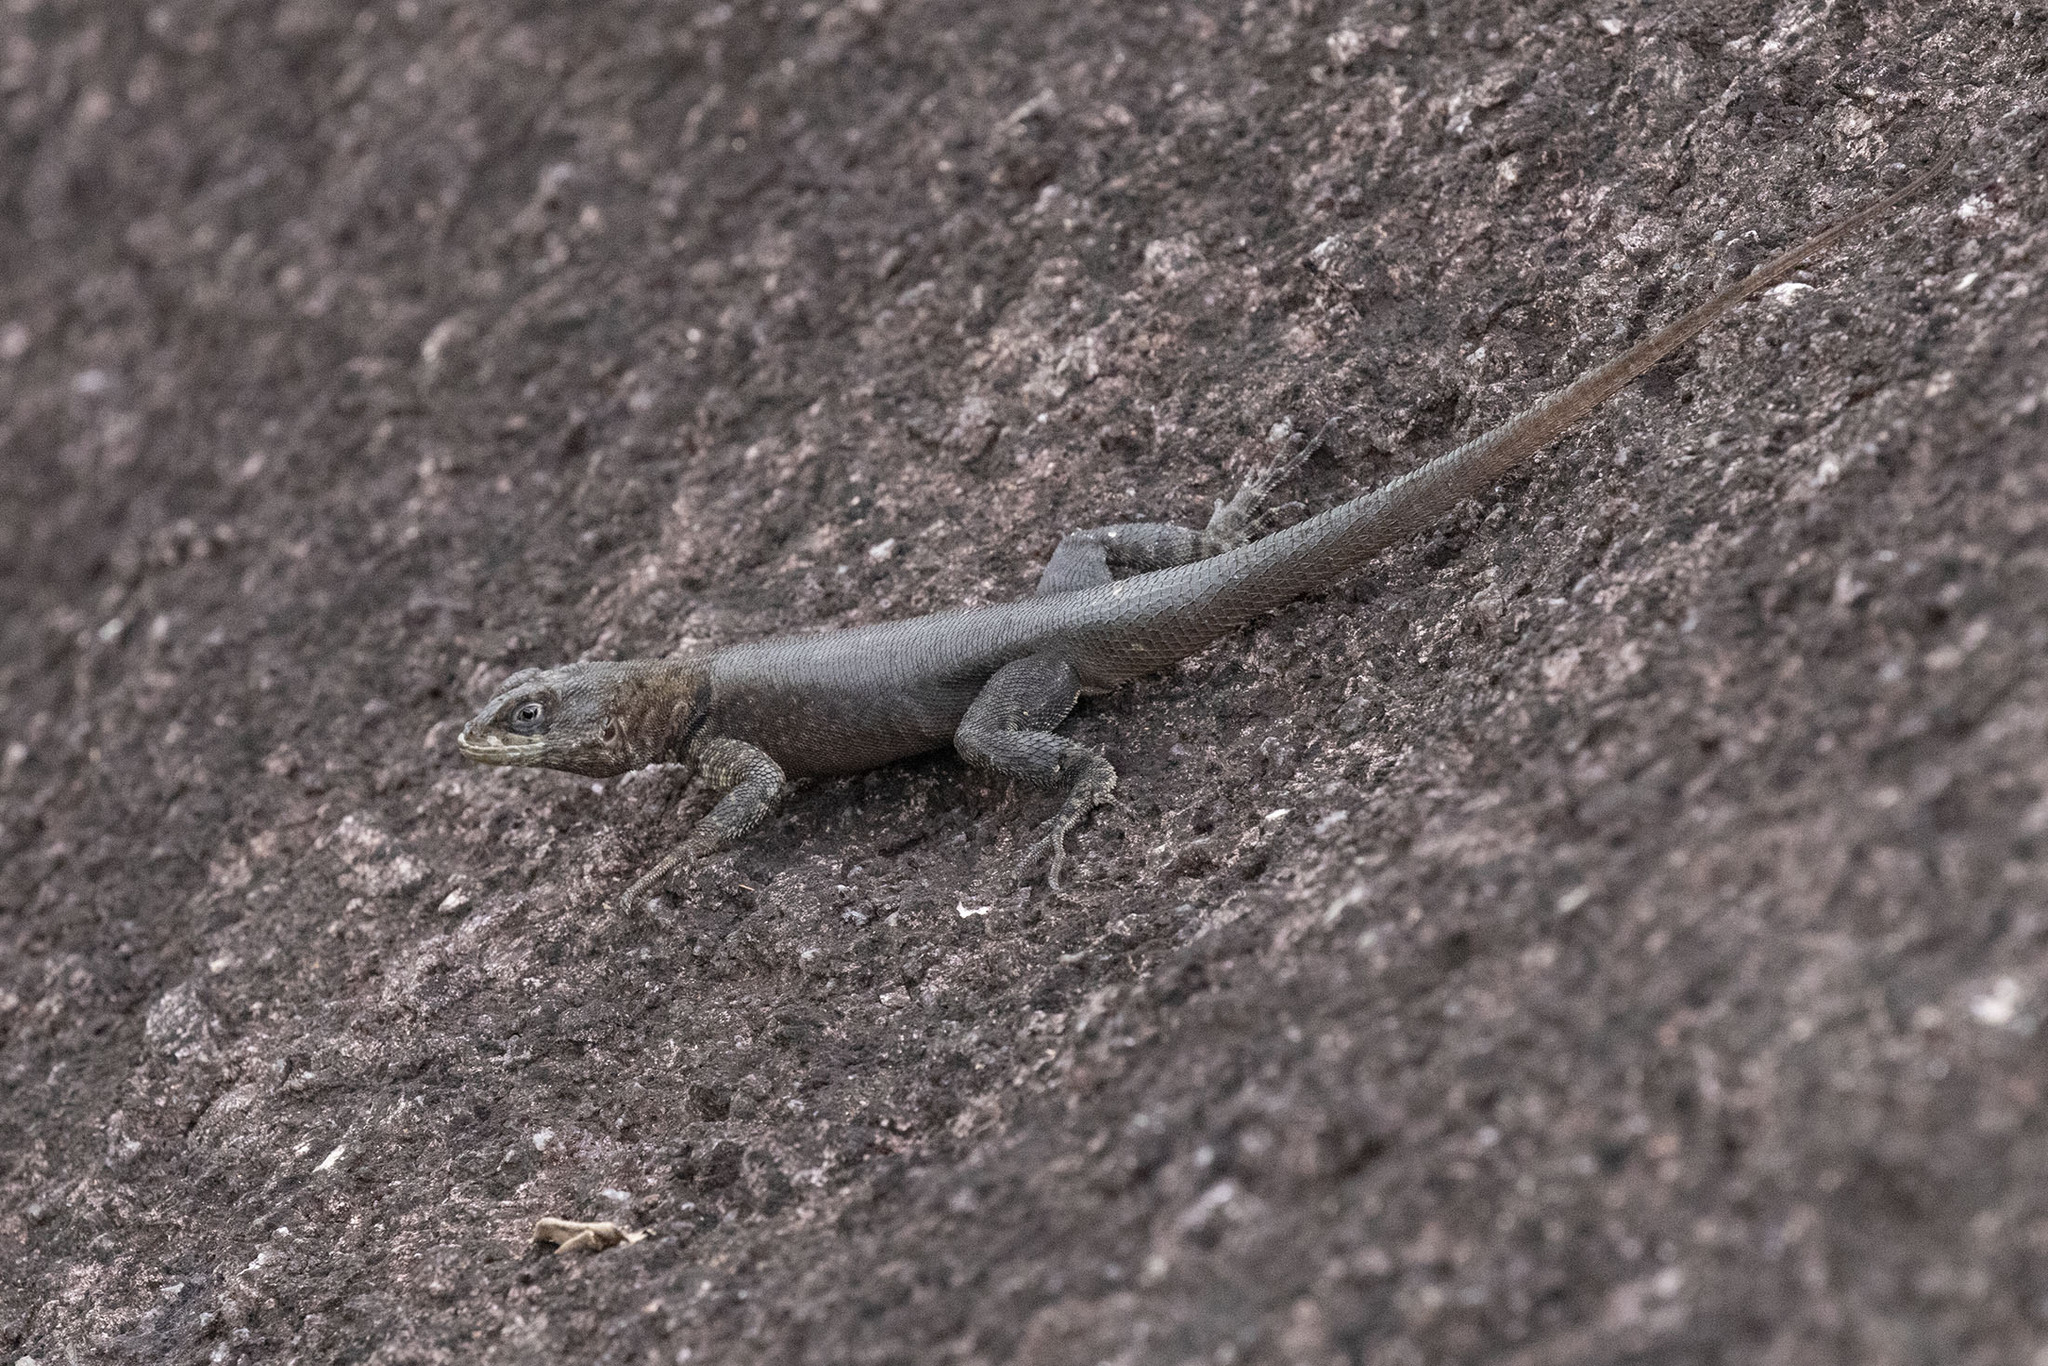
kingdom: Animalia
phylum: Chordata
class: Squamata
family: Tropiduridae
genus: Tropidurus
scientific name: Tropidurus hispidus
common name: Peters' lava lizard
